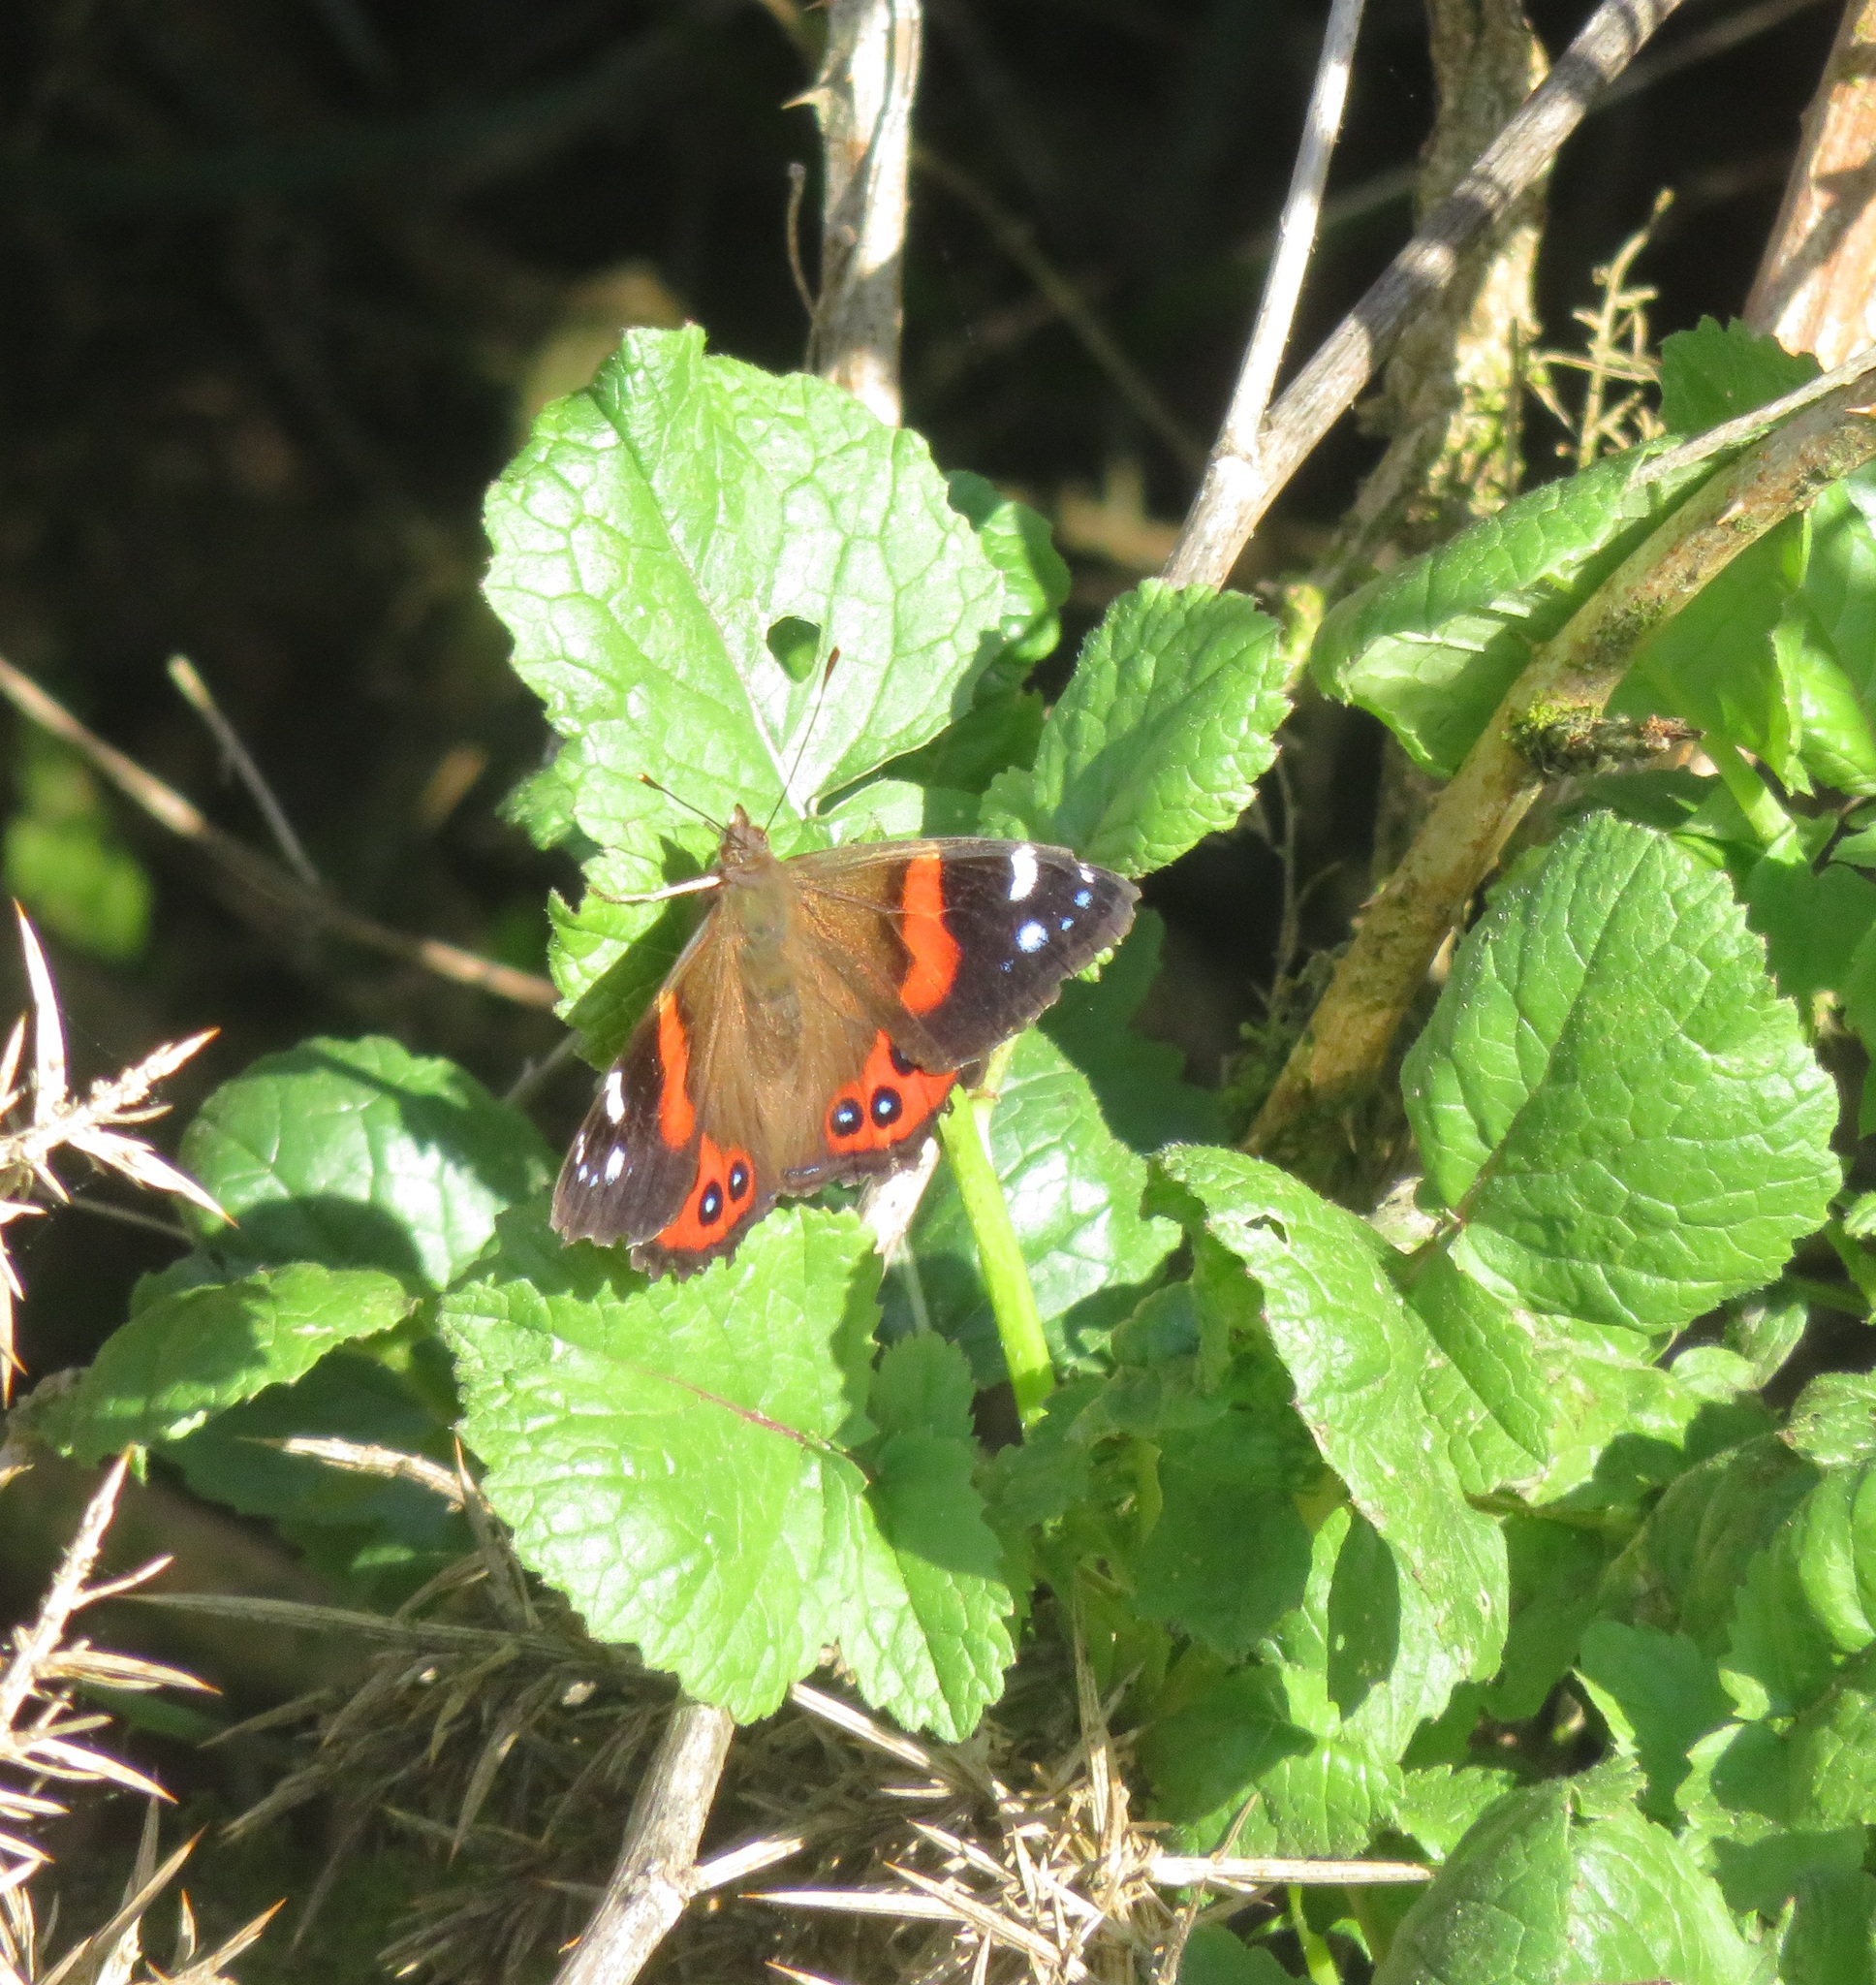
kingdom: Animalia
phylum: Arthropoda
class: Insecta
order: Lepidoptera
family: Nymphalidae
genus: Vanessa
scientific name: Vanessa gonerilla
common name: New zealand red admiral
